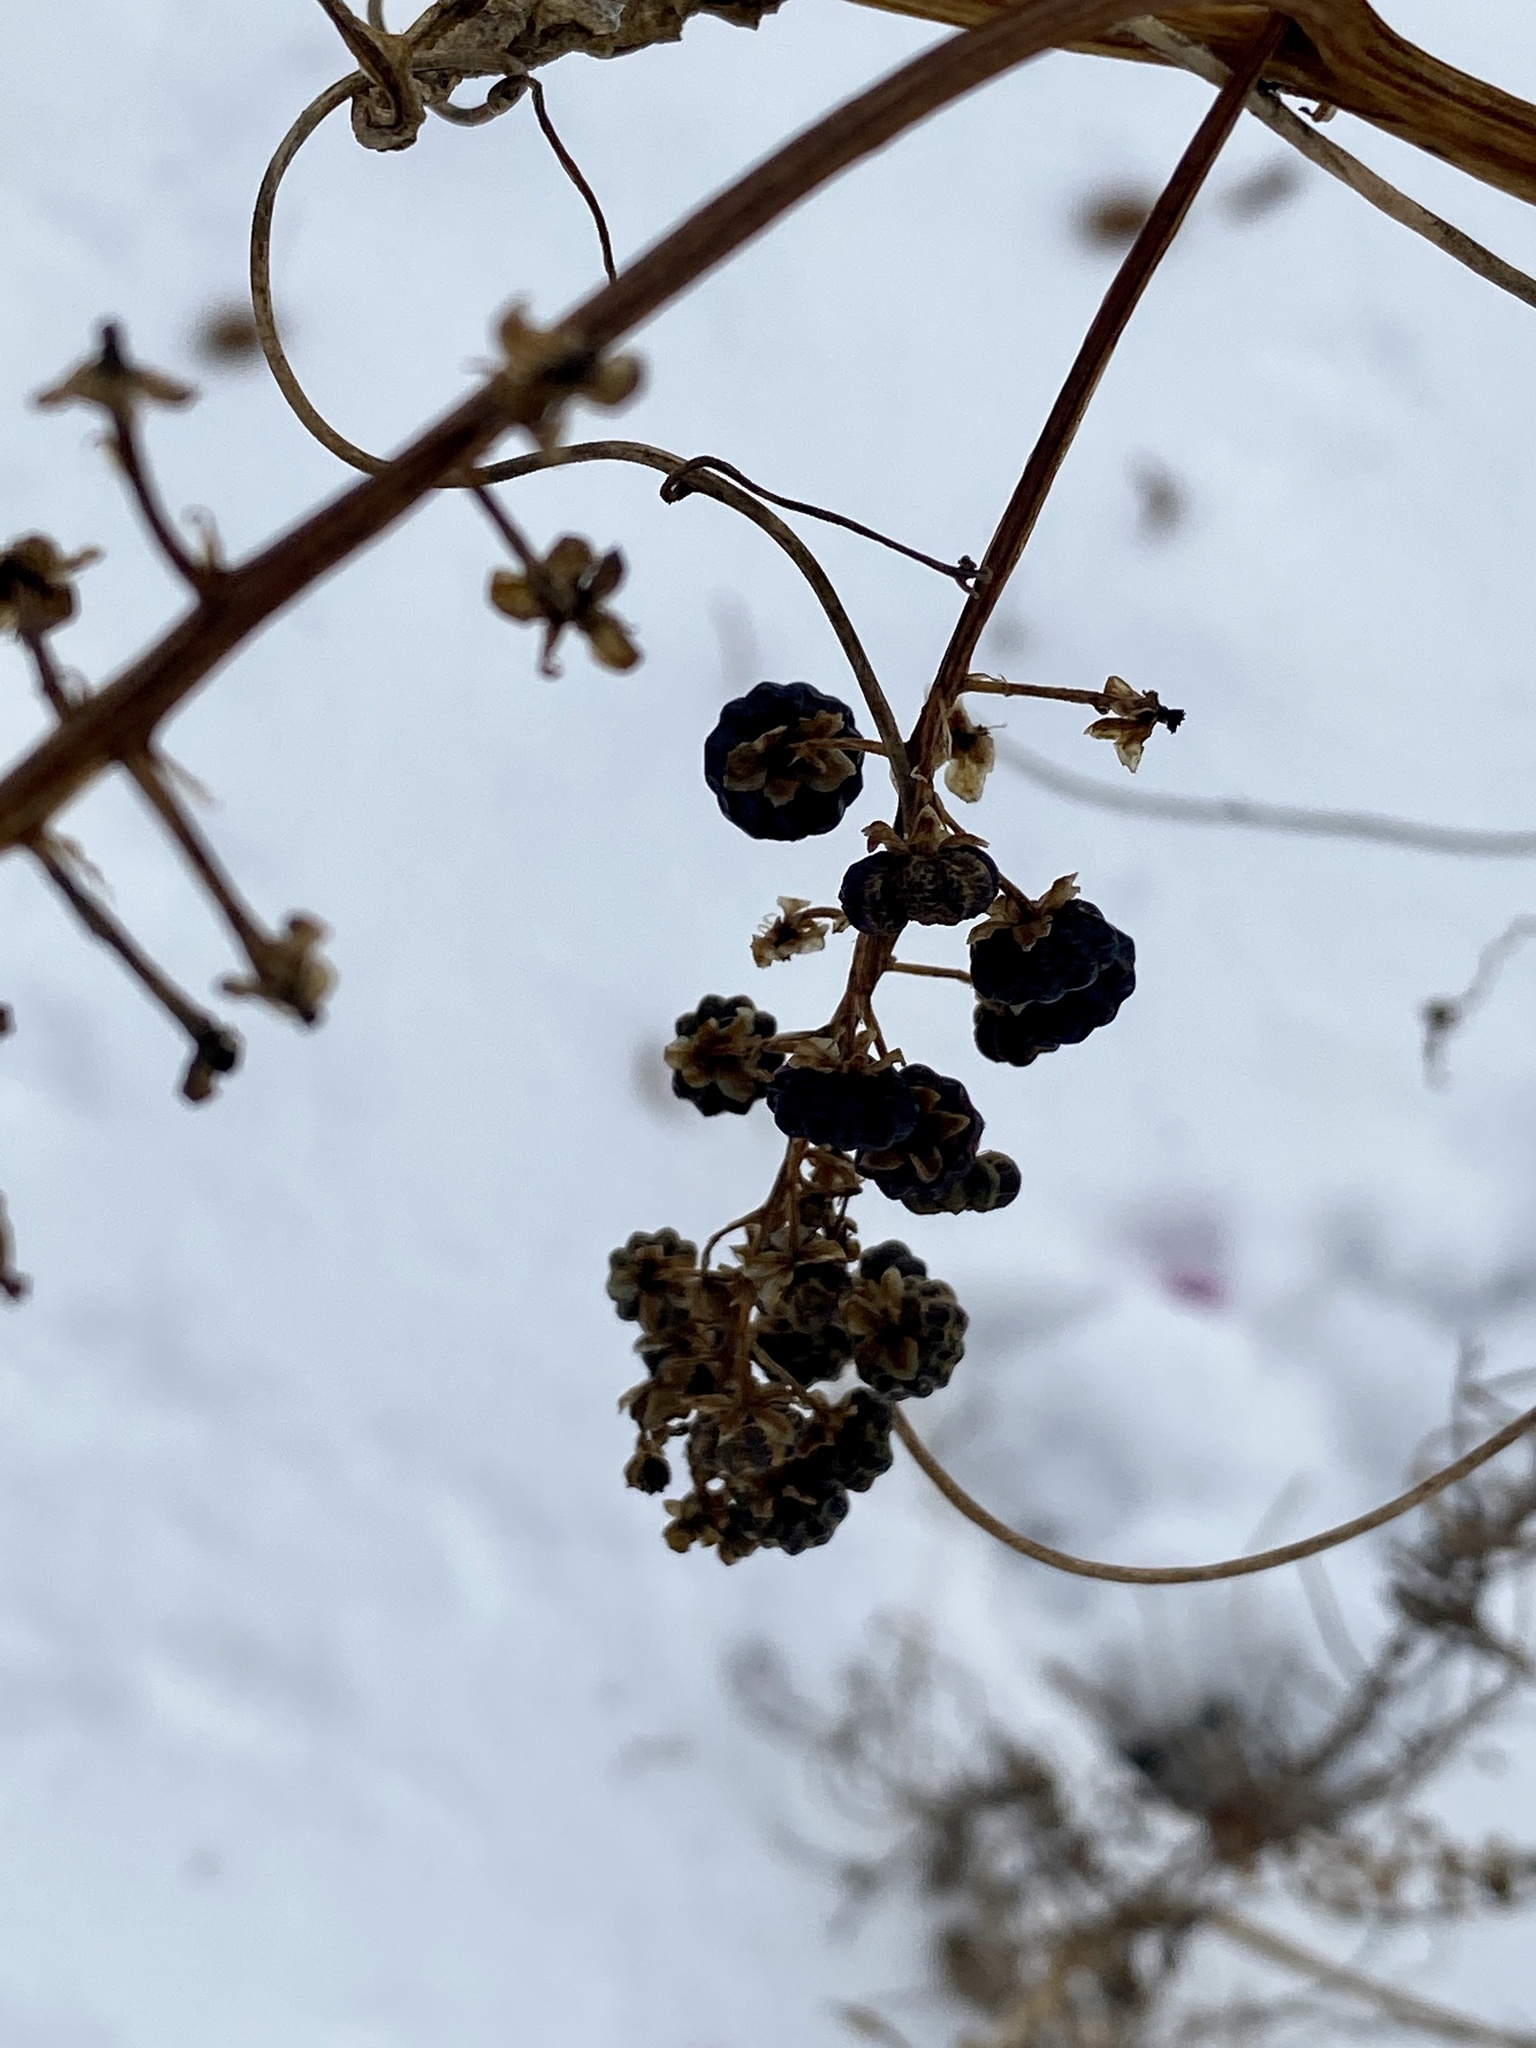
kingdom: Plantae
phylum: Tracheophyta
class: Magnoliopsida
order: Caryophyllales
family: Phytolaccaceae
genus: Phytolacca
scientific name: Phytolacca americana
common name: American pokeweed
